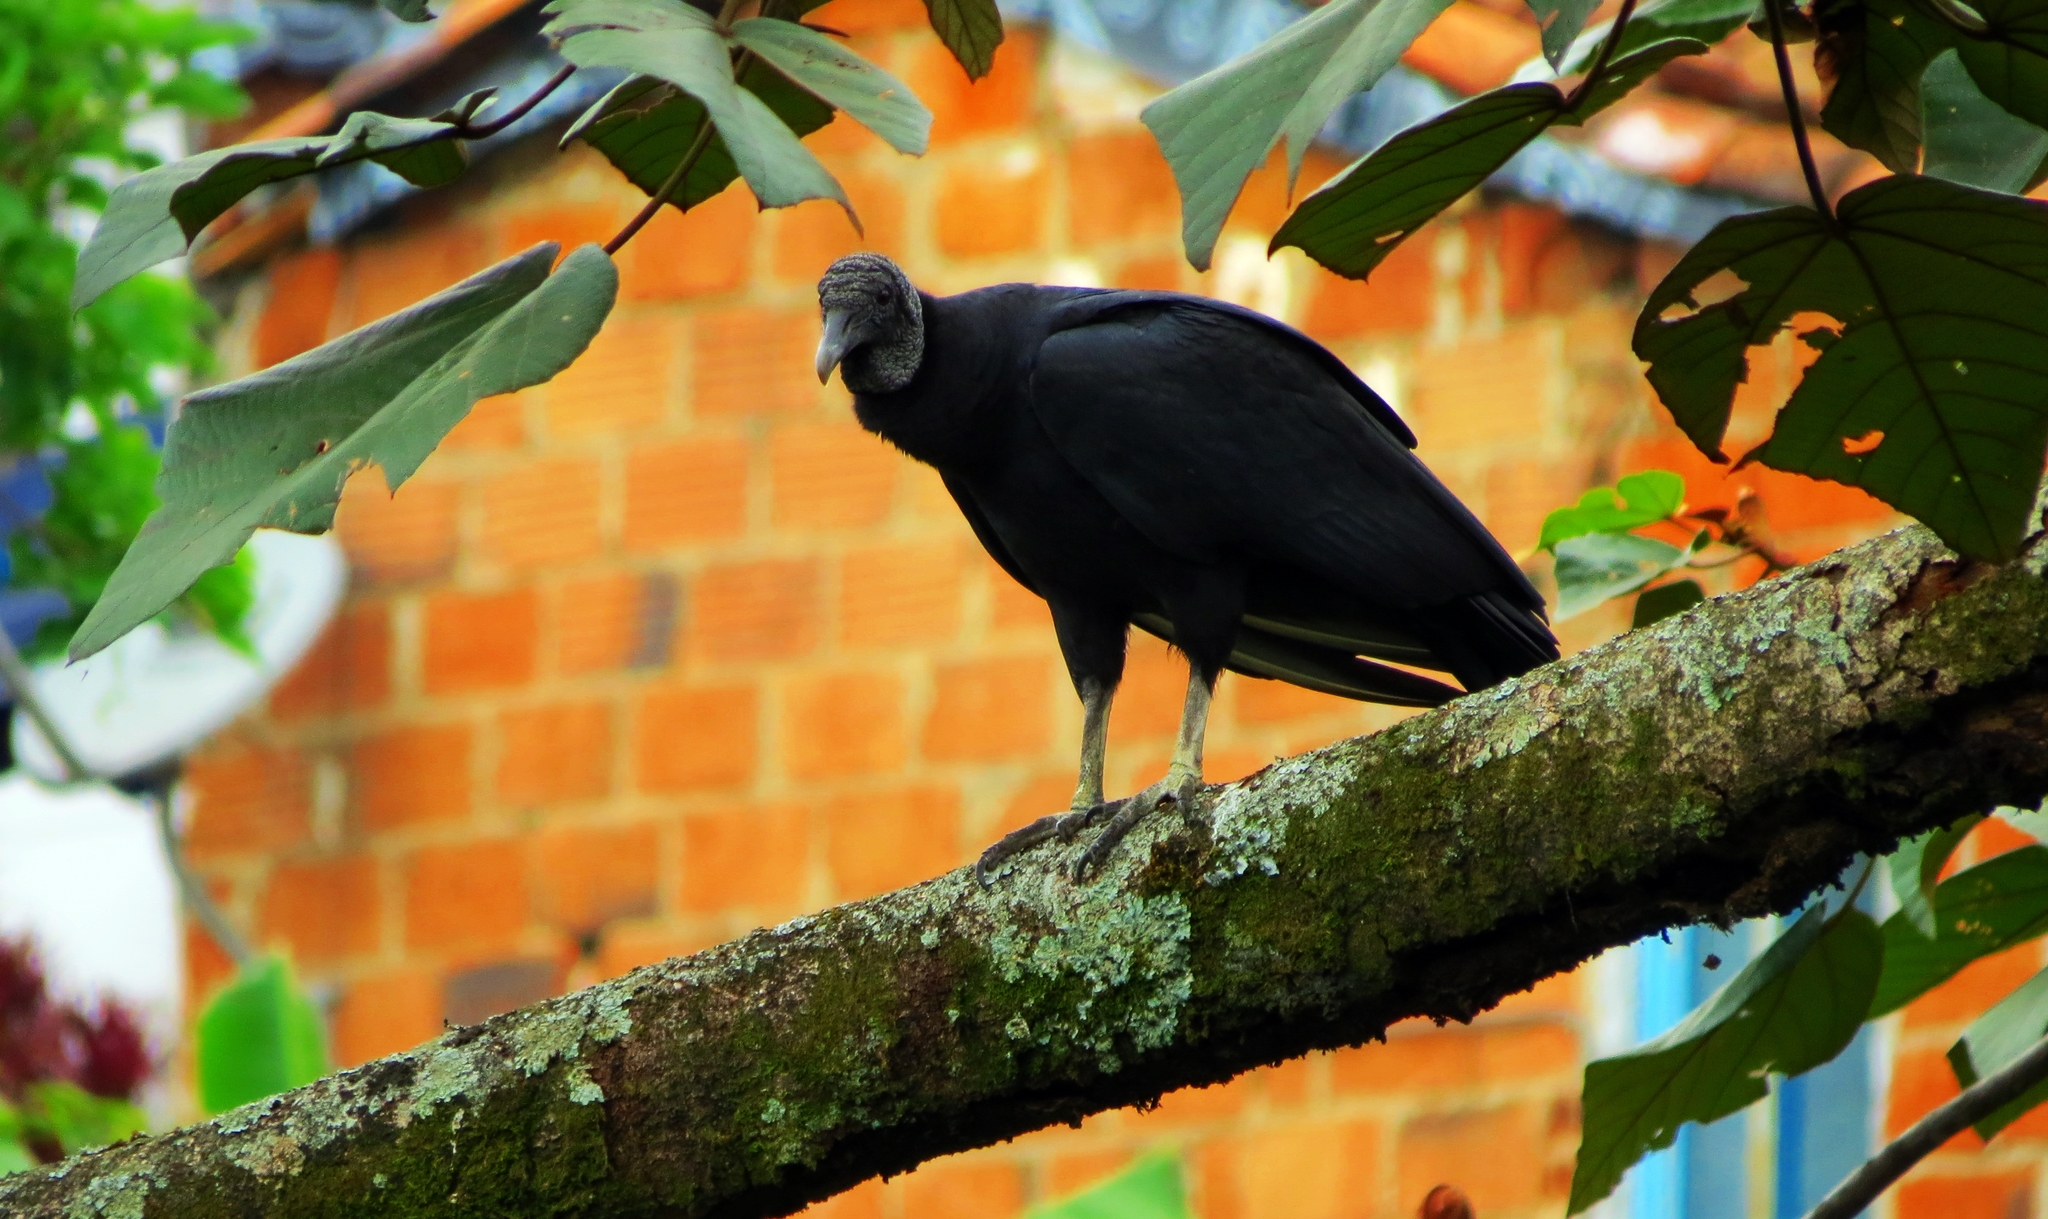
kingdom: Animalia
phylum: Chordata
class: Aves
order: Accipitriformes
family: Cathartidae
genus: Coragyps
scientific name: Coragyps atratus
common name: Black vulture
